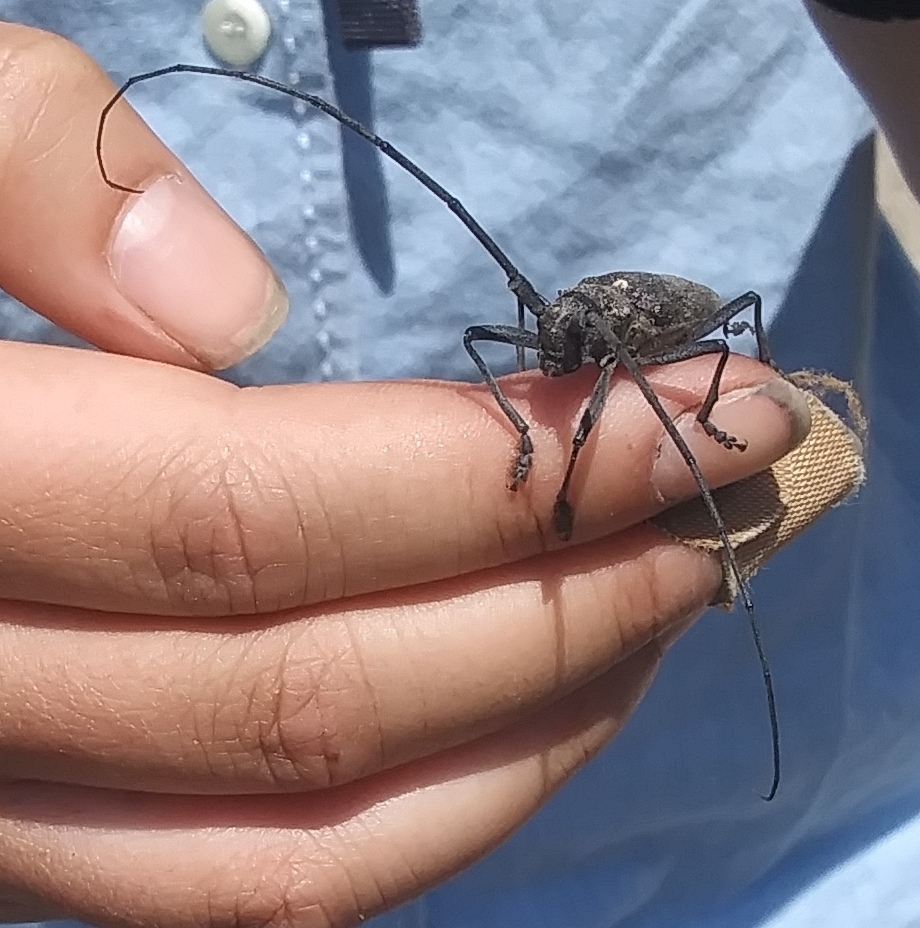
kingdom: Animalia
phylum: Arthropoda
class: Insecta
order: Coleoptera
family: Cerambycidae
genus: Monochamus
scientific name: Monochamus scutellatus
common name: White-spotted sawyer beetle
